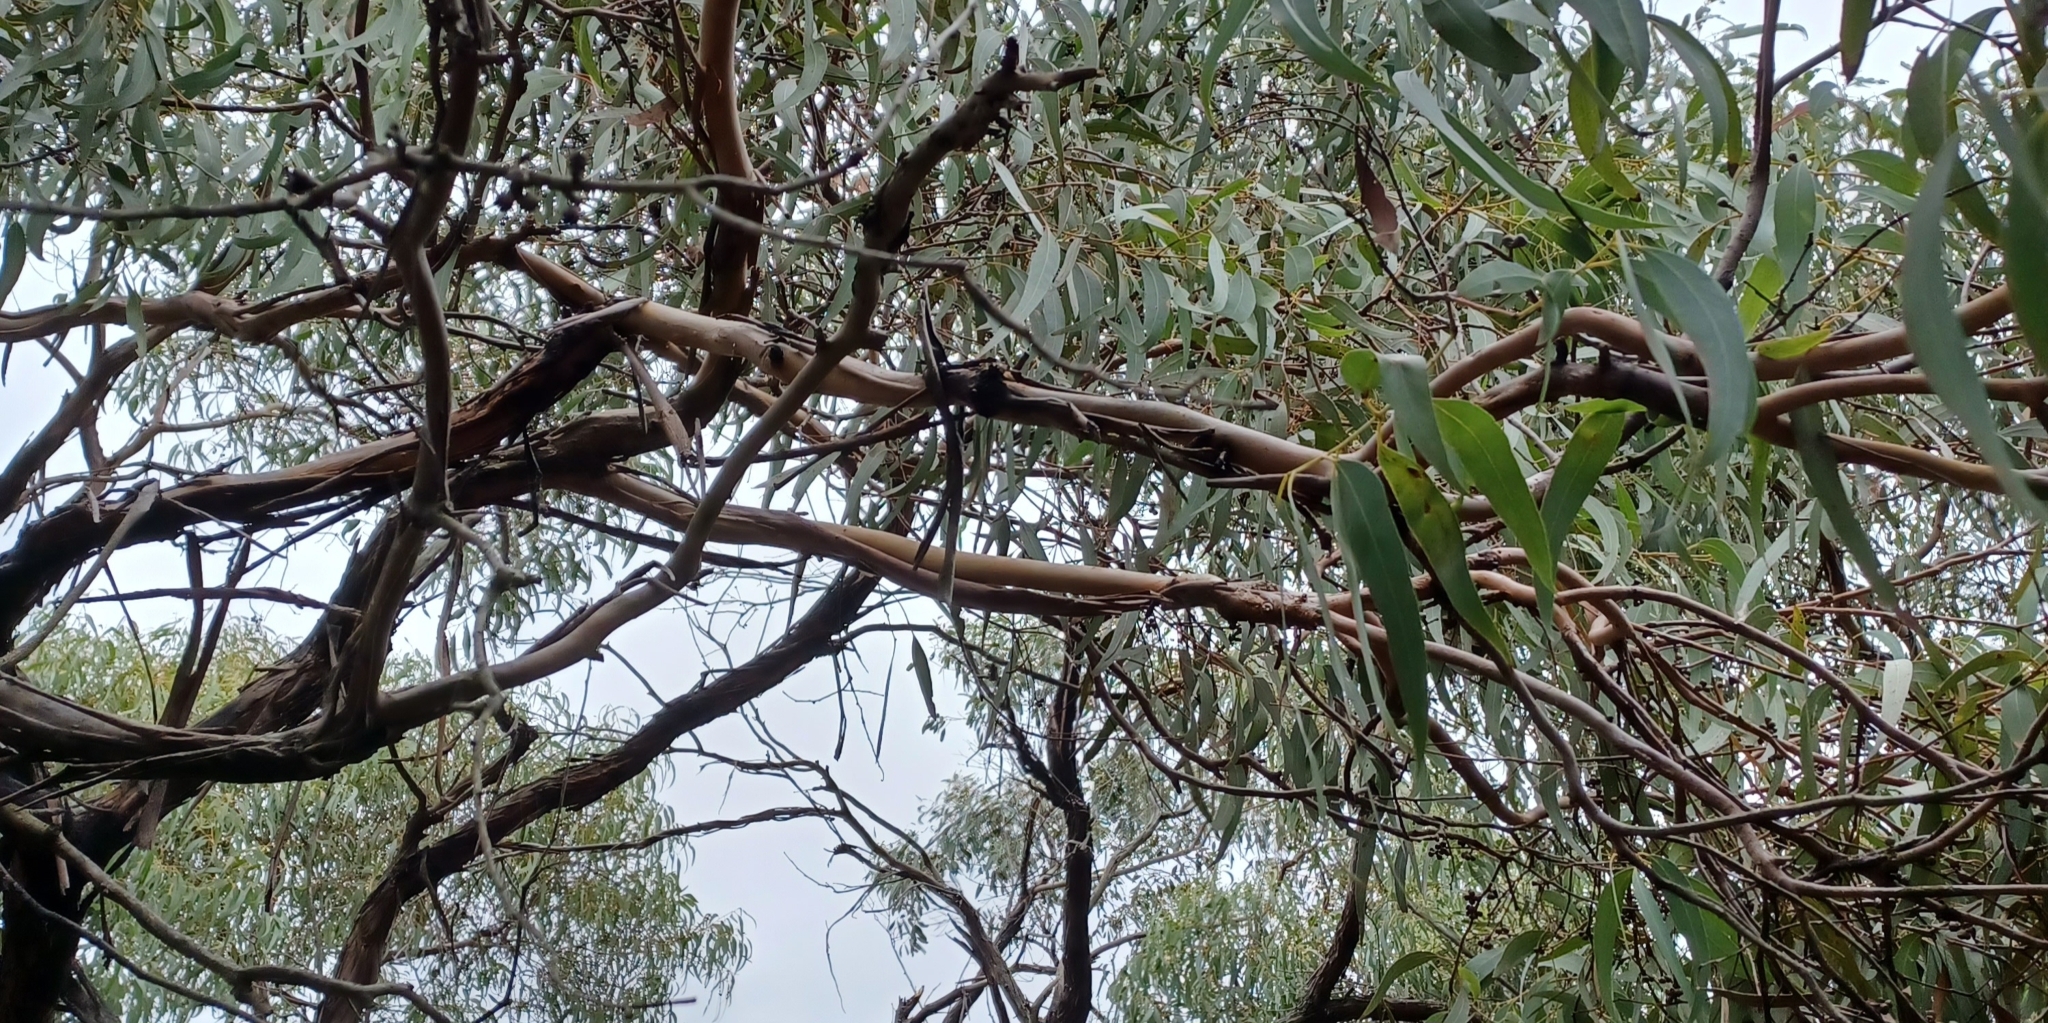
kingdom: Plantae
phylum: Tracheophyta
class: Magnoliopsida
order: Myrtales
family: Myrtaceae
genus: Eucalyptus
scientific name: Eucalyptus aromaphloia
